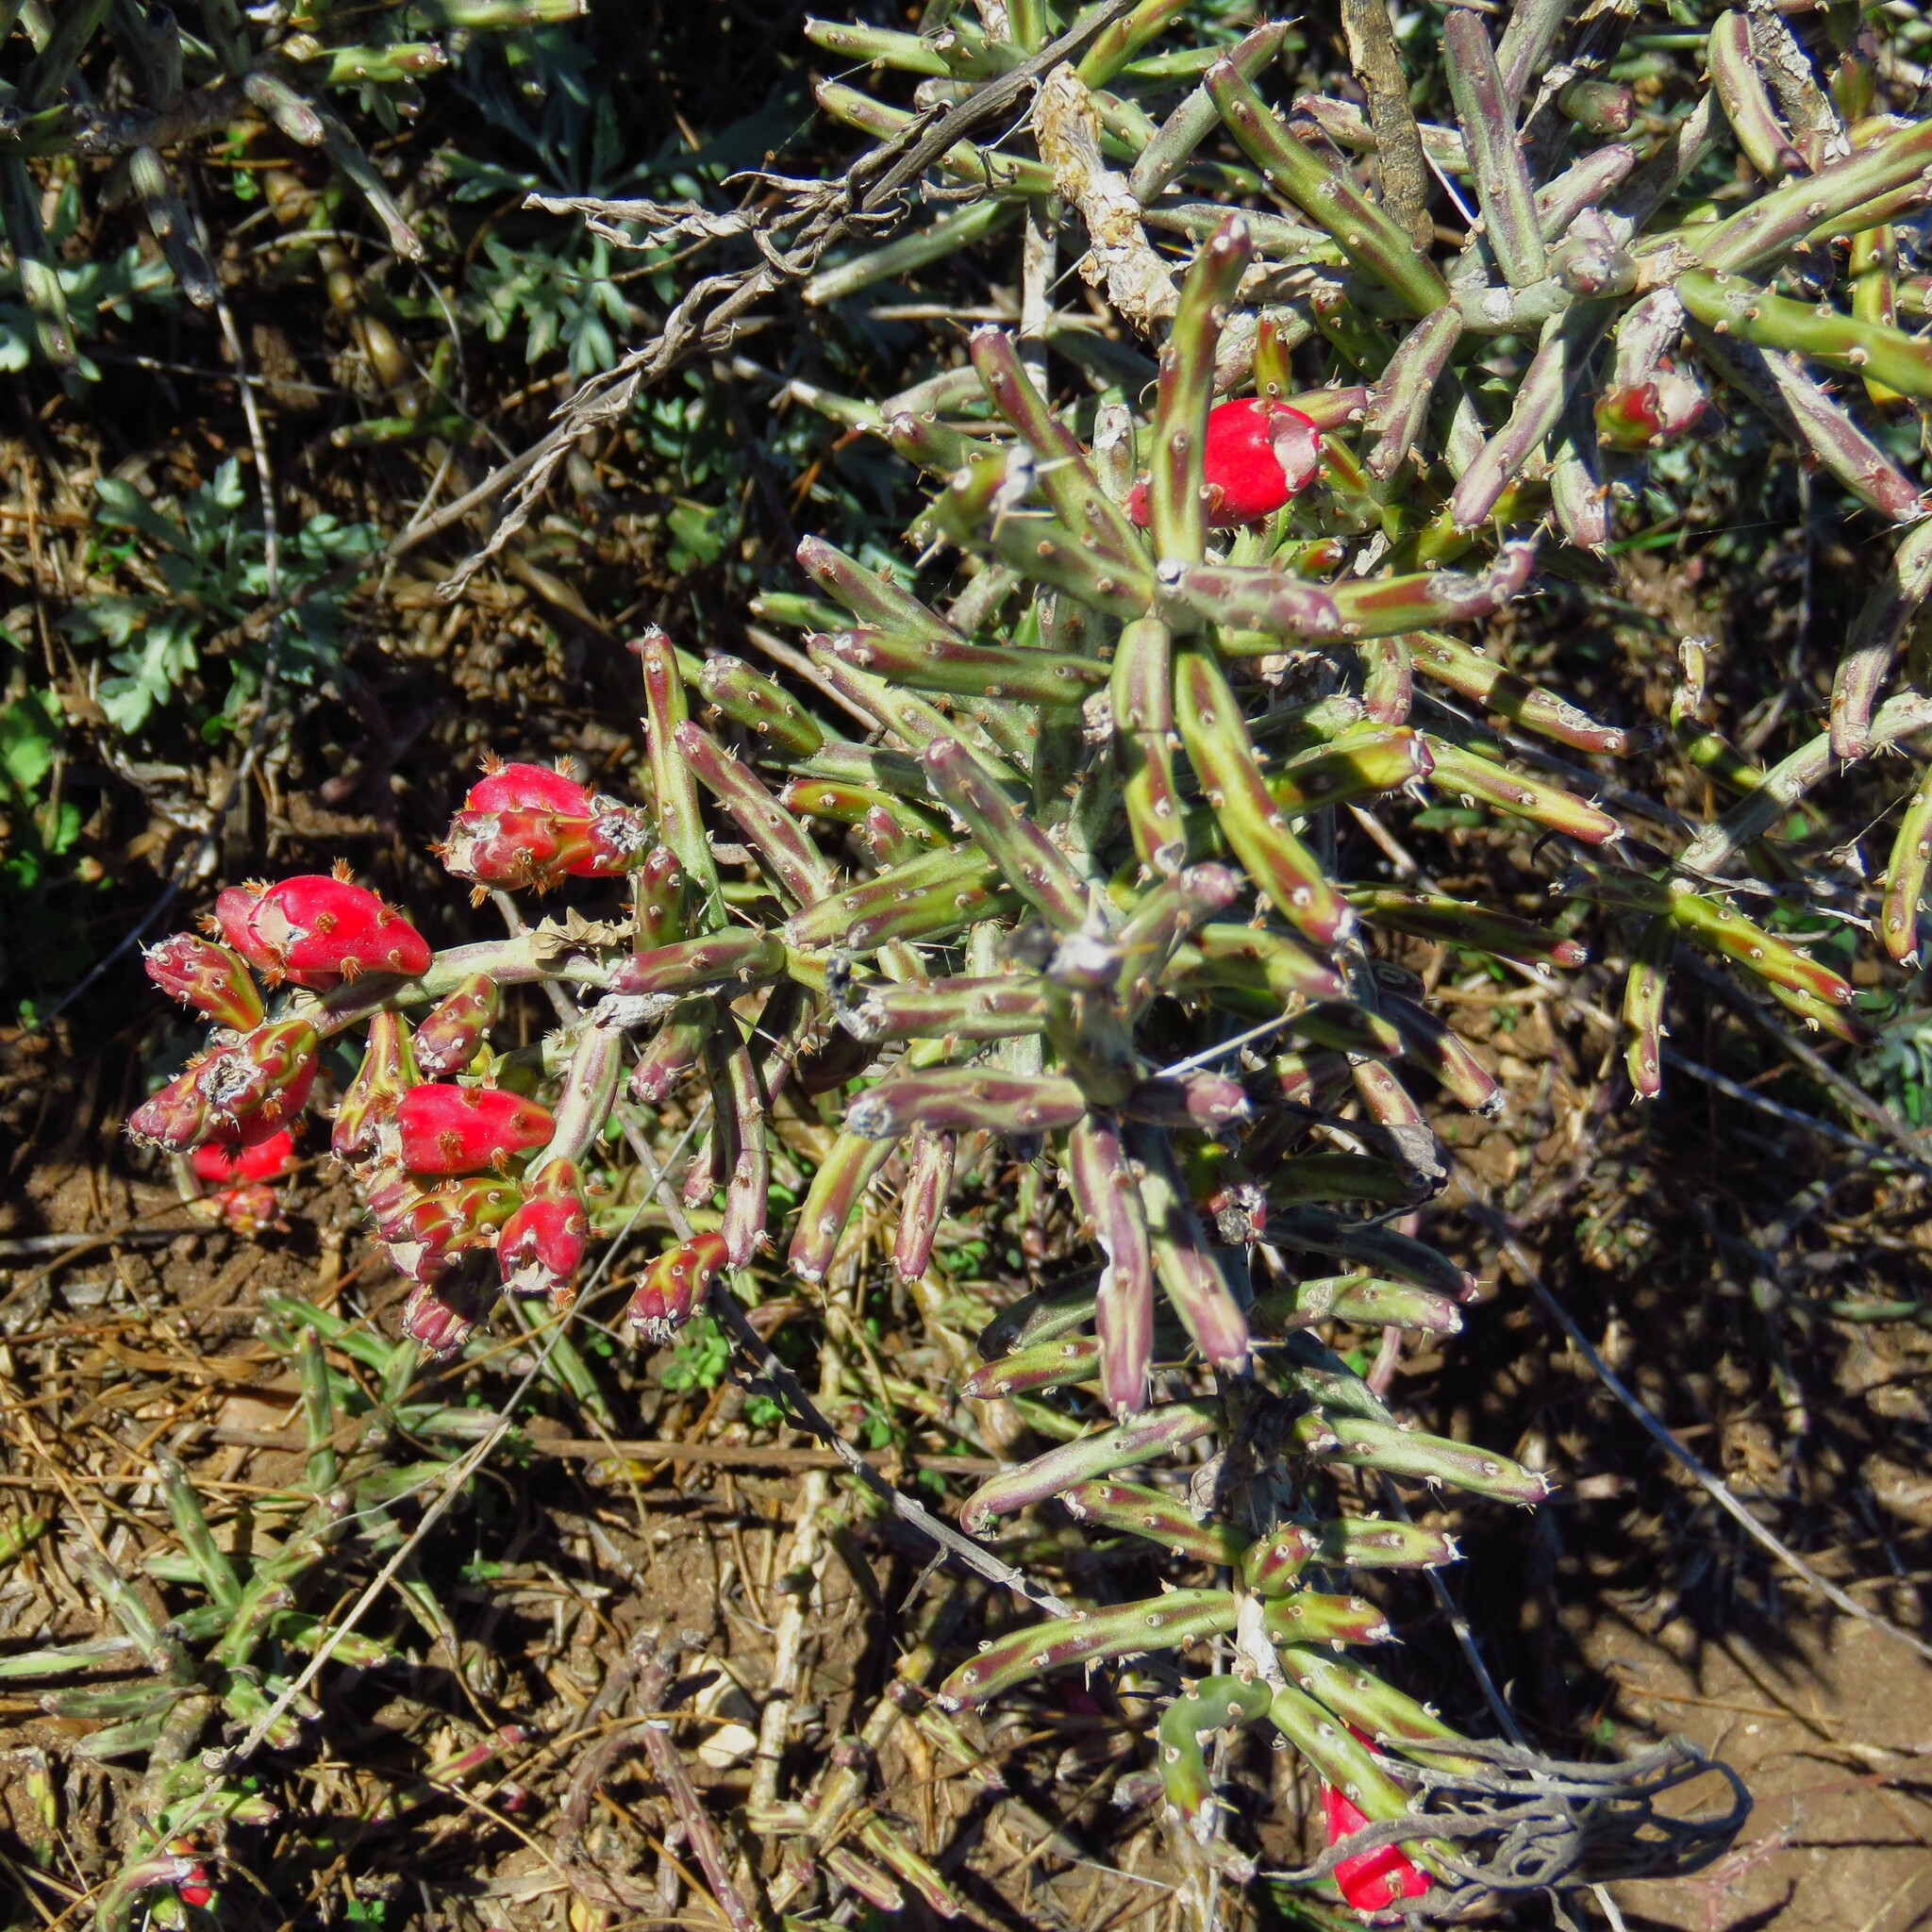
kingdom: Plantae
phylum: Tracheophyta
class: Magnoliopsida
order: Caryophyllales
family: Cactaceae
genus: Cylindropuntia
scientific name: Cylindropuntia leptocaulis
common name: Christmas cactus
